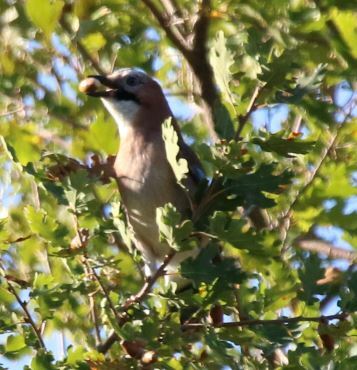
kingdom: Animalia
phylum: Chordata
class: Aves
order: Passeriformes
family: Corvidae
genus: Garrulus
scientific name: Garrulus glandarius
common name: Eurasian jay
